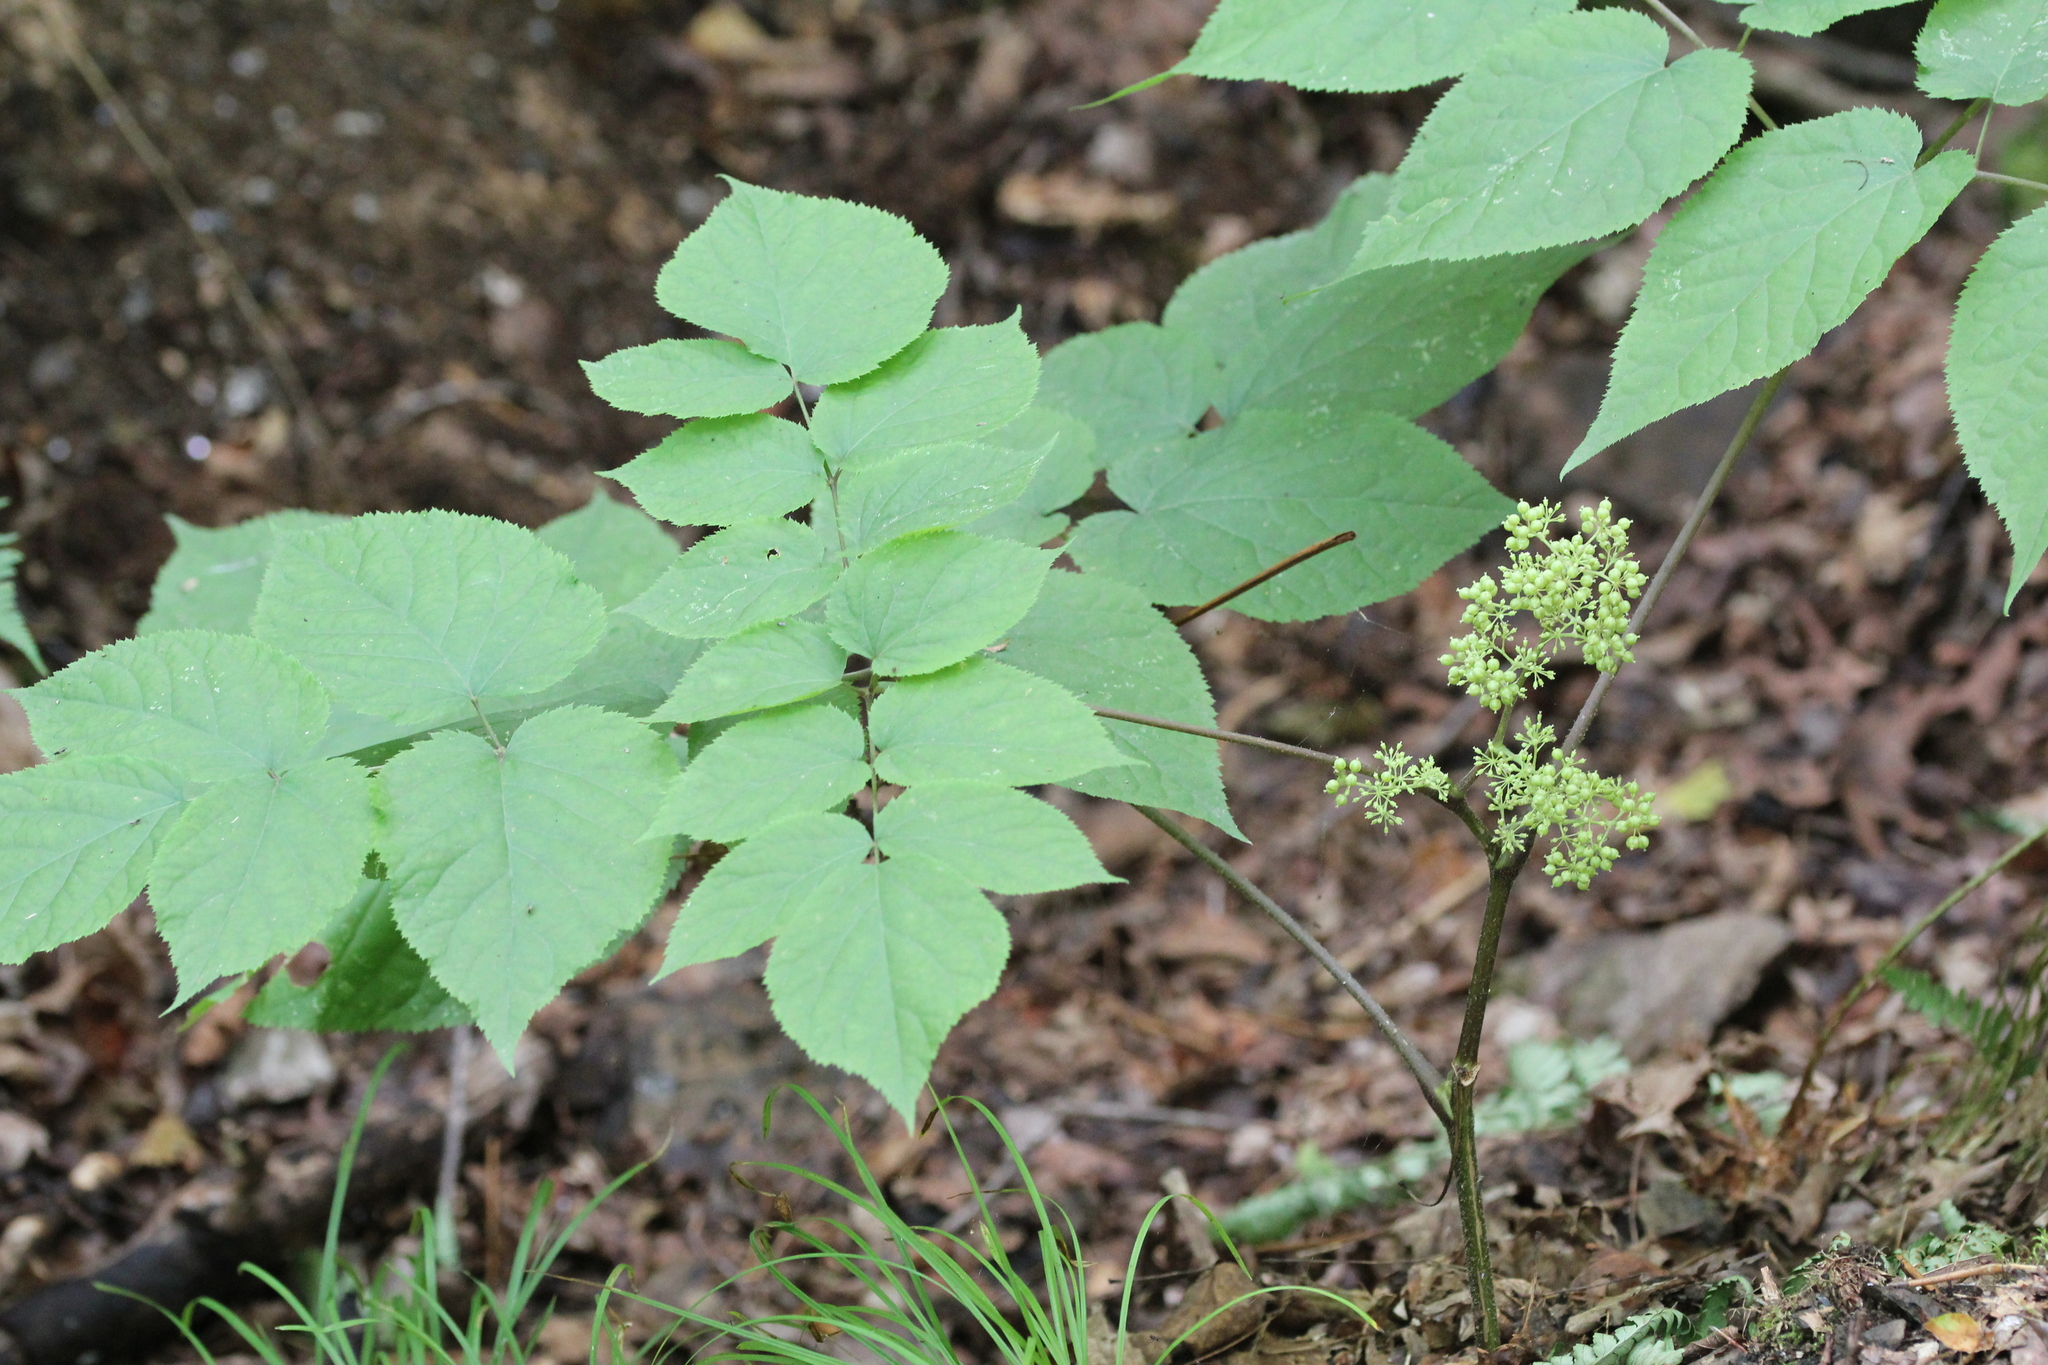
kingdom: Plantae
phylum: Tracheophyta
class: Magnoliopsida
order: Apiales
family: Araliaceae
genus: Aralia
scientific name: Aralia racemosa
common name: American-spikenard
